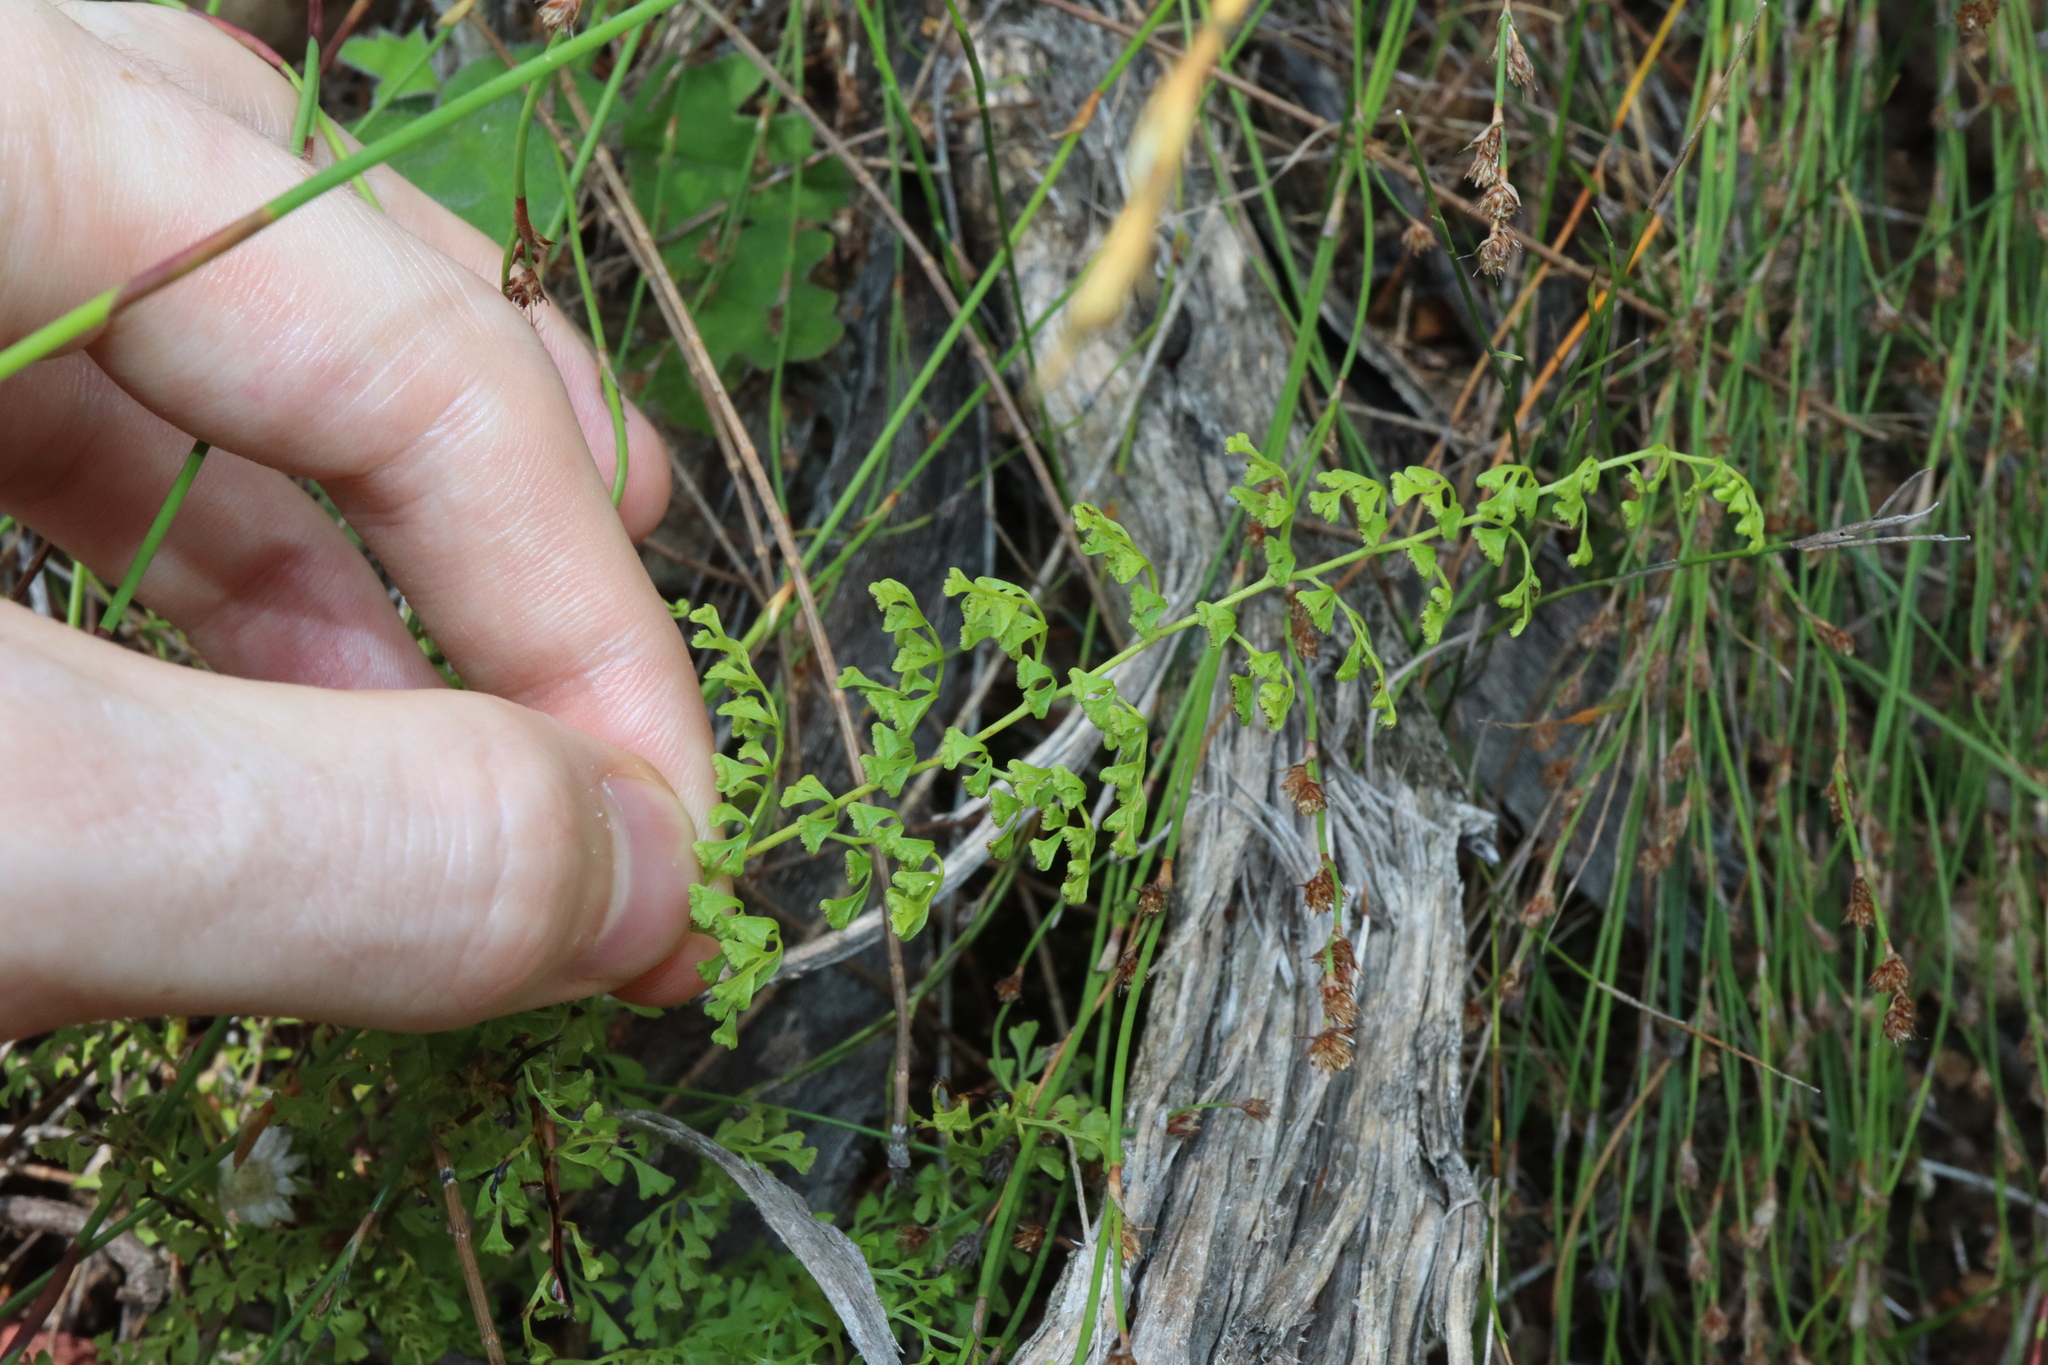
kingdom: Plantae
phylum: Tracheophyta
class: Polypodiopsida
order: Polypodiales
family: Lindsaeaceae
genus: Lindsaea
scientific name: Lindsaea microphylla
